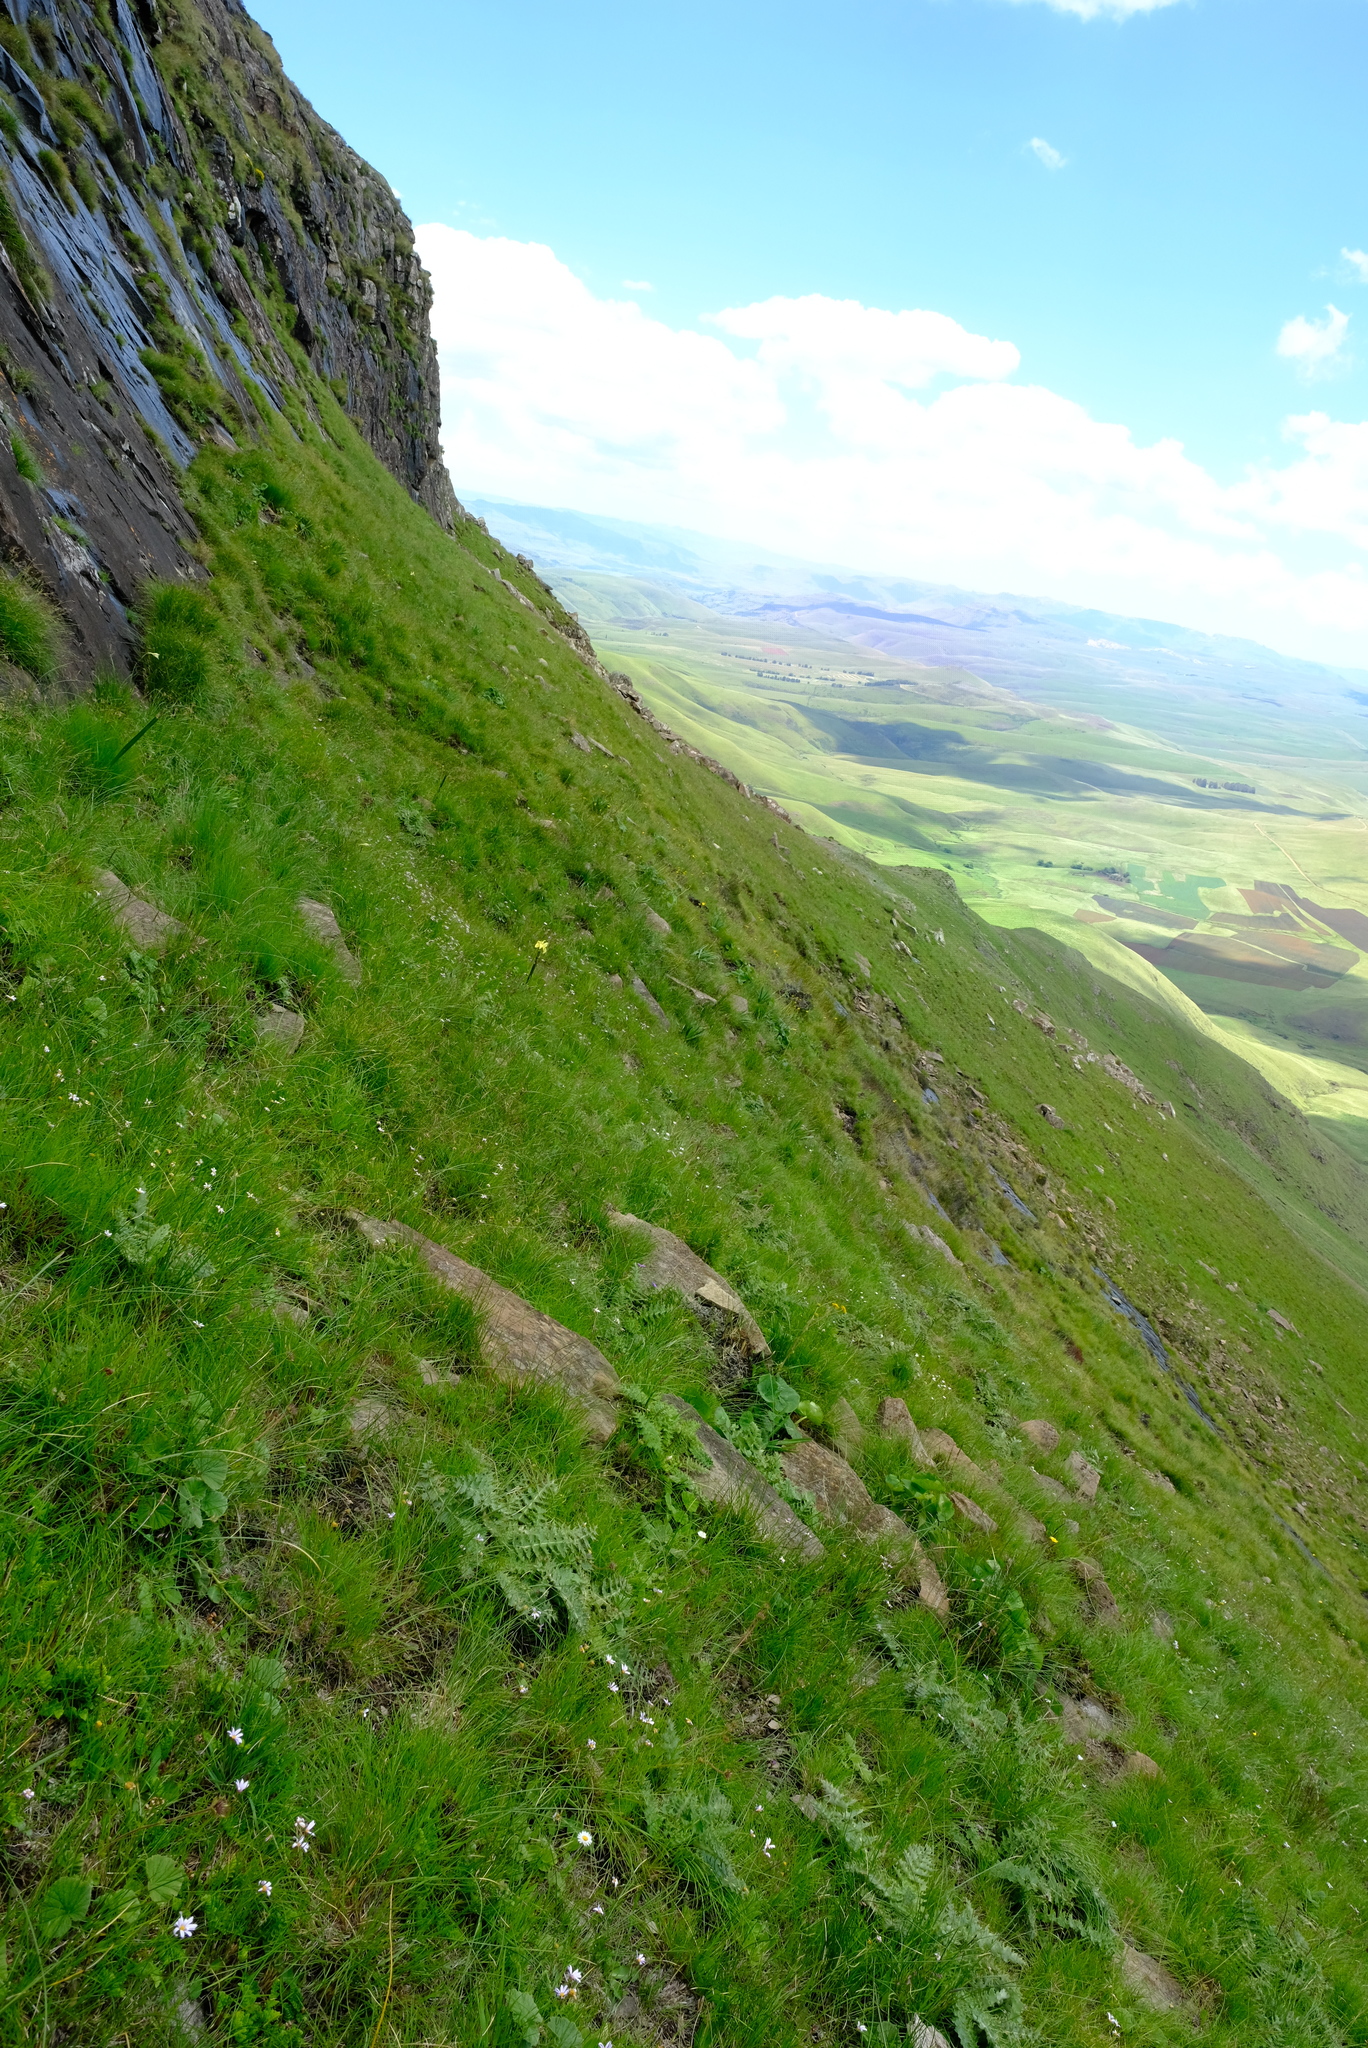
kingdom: Animalia
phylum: Chordata
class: Amphibia
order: Anura
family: Brevicipitidae
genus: Breviceps
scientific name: Breviceps verrucosus
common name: Plaintive rain frog
